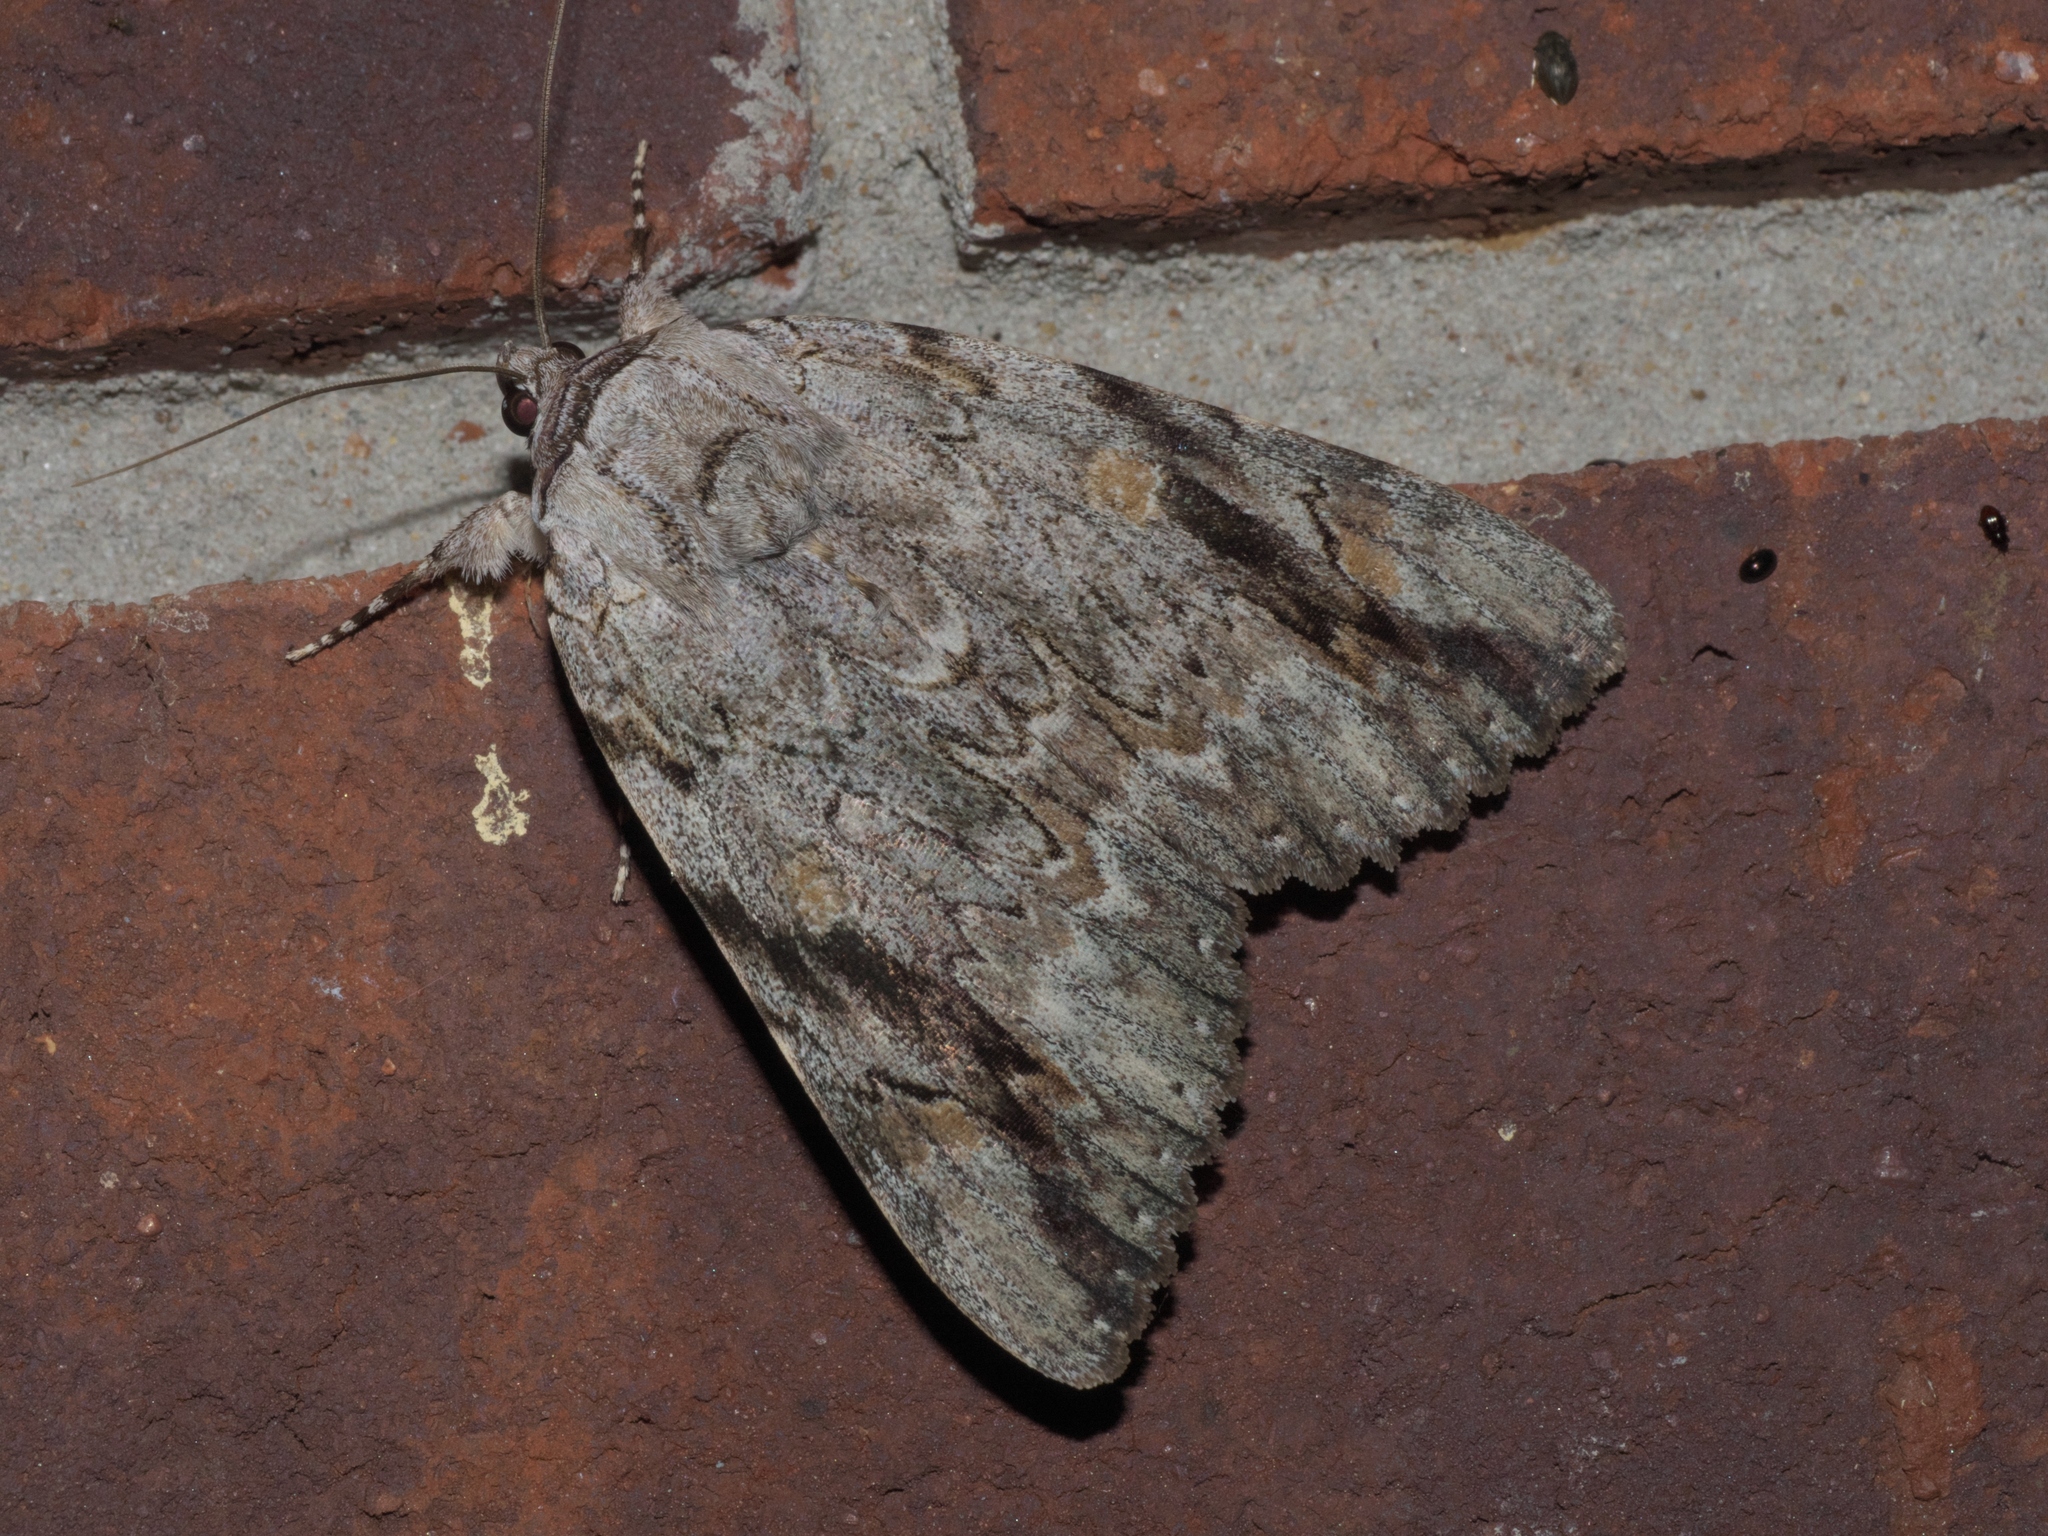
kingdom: Animalia
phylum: Arthropoda
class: Insecta
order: Lepidoptera
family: Erebidae
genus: Catocala
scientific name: Catocala maestosa
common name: Sad underwing
